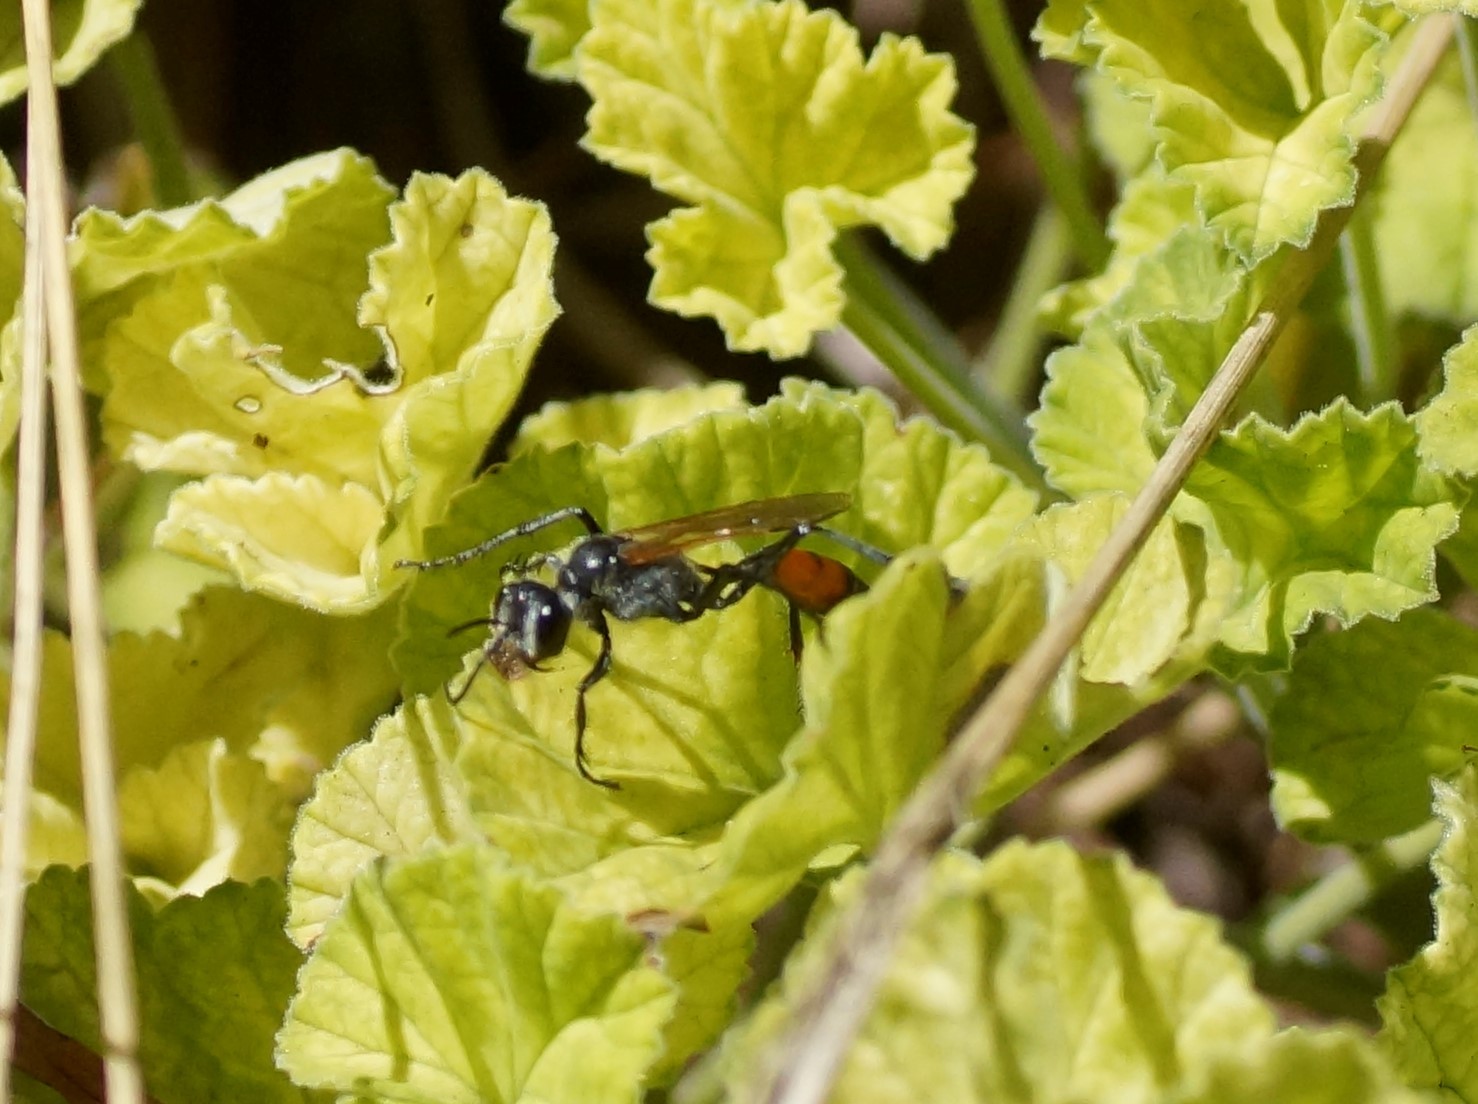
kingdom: Animalia
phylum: Arthropoda
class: Insecta
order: Hymenoptera
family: Sphecidae
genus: Podalonia
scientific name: Podalonia tydei
